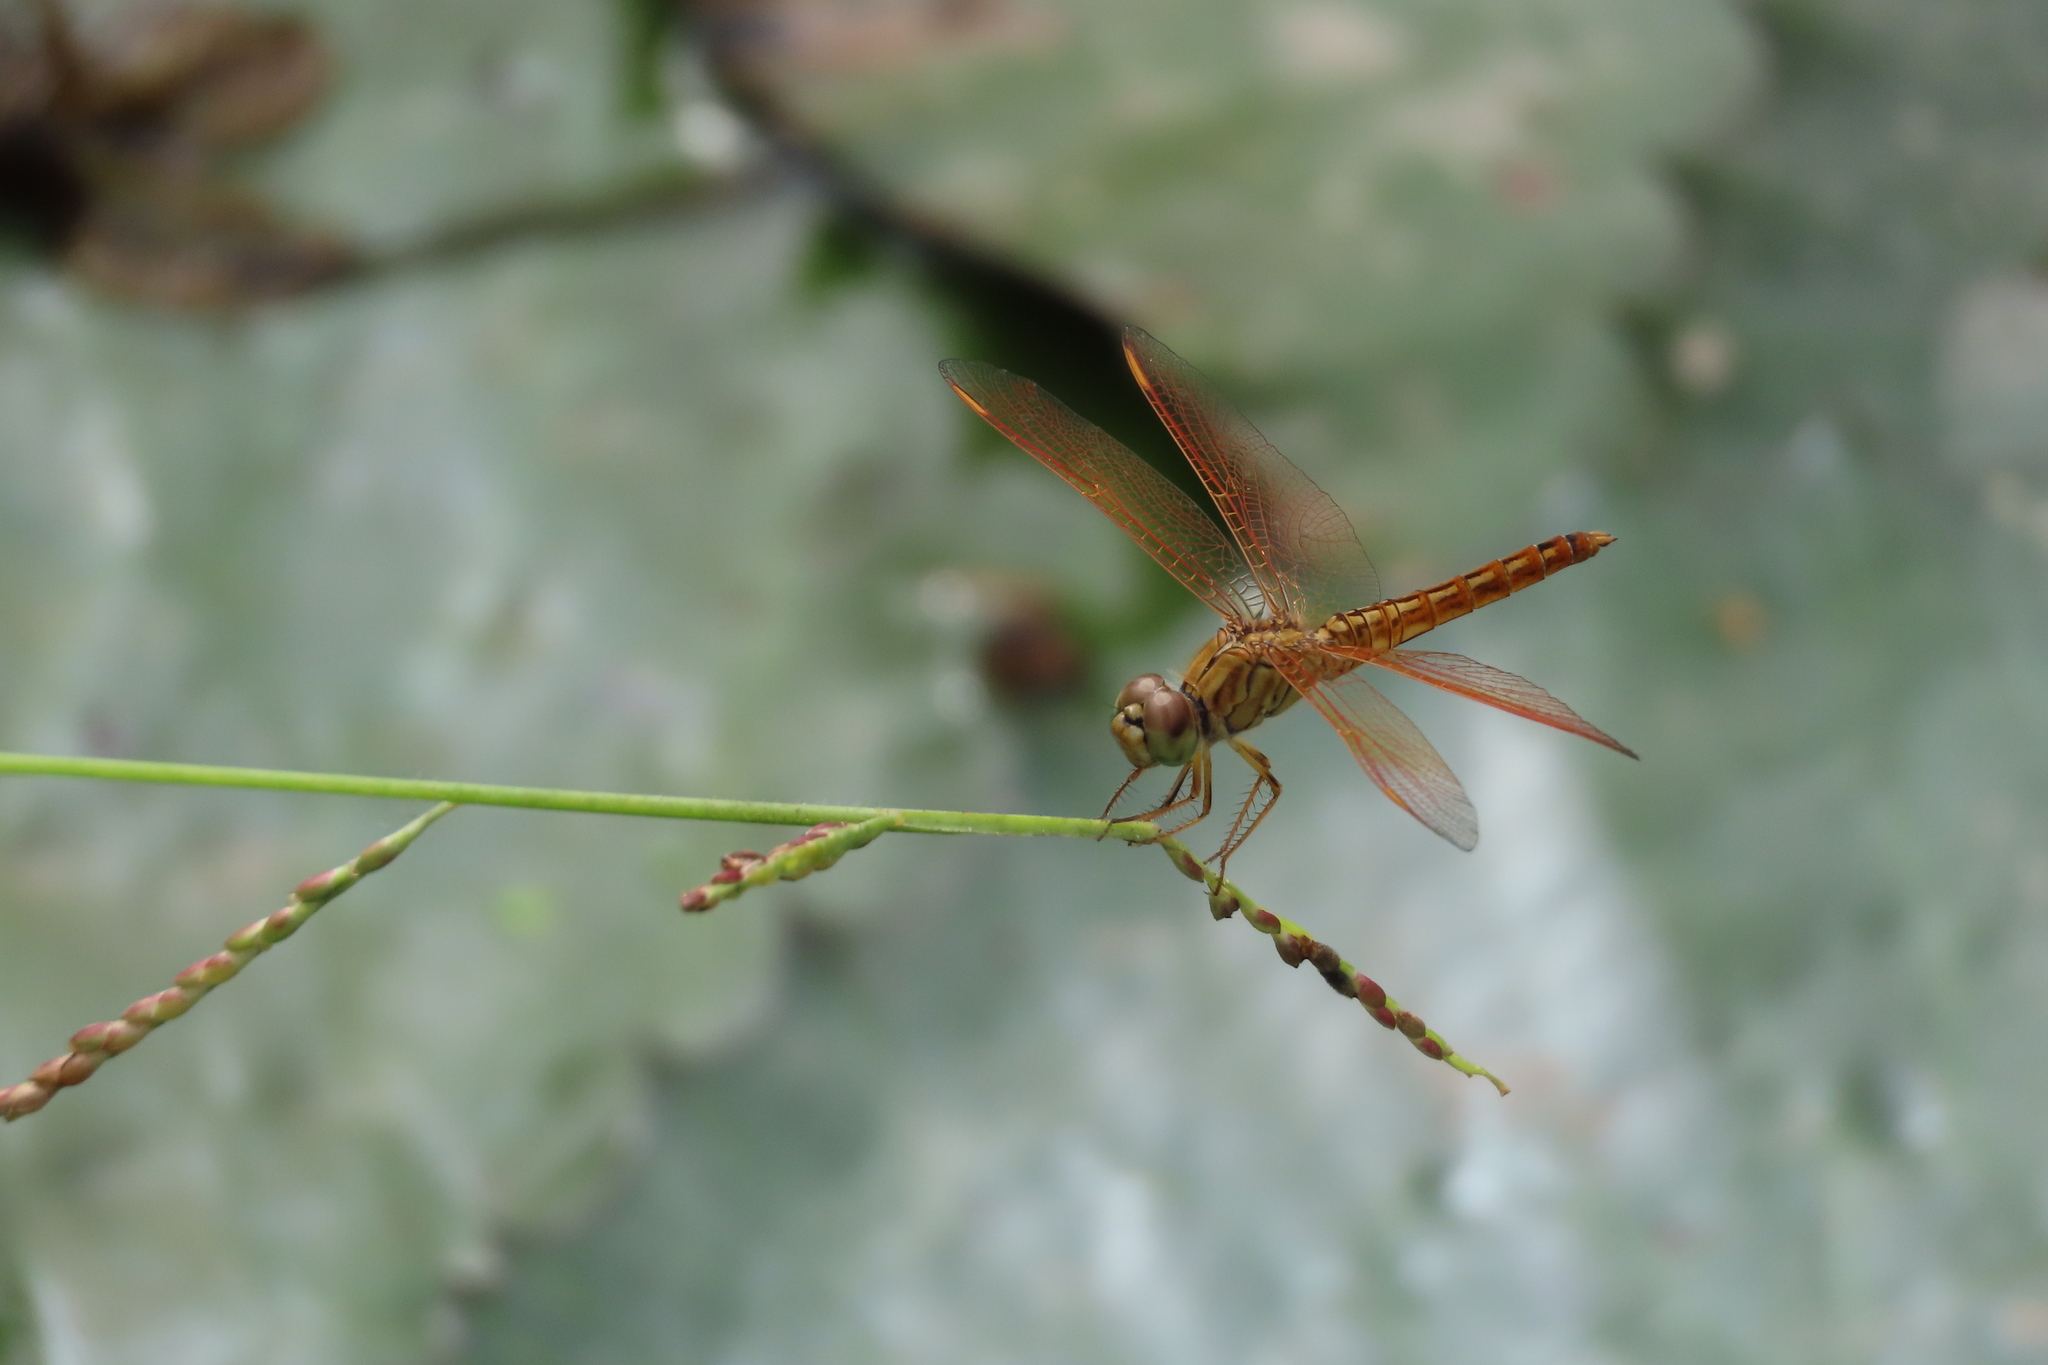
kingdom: Animalia
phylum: Arthropoda
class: Insecta
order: Odonata
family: Libellulidae
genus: Brachythemis
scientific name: Brachythemis contaminata
